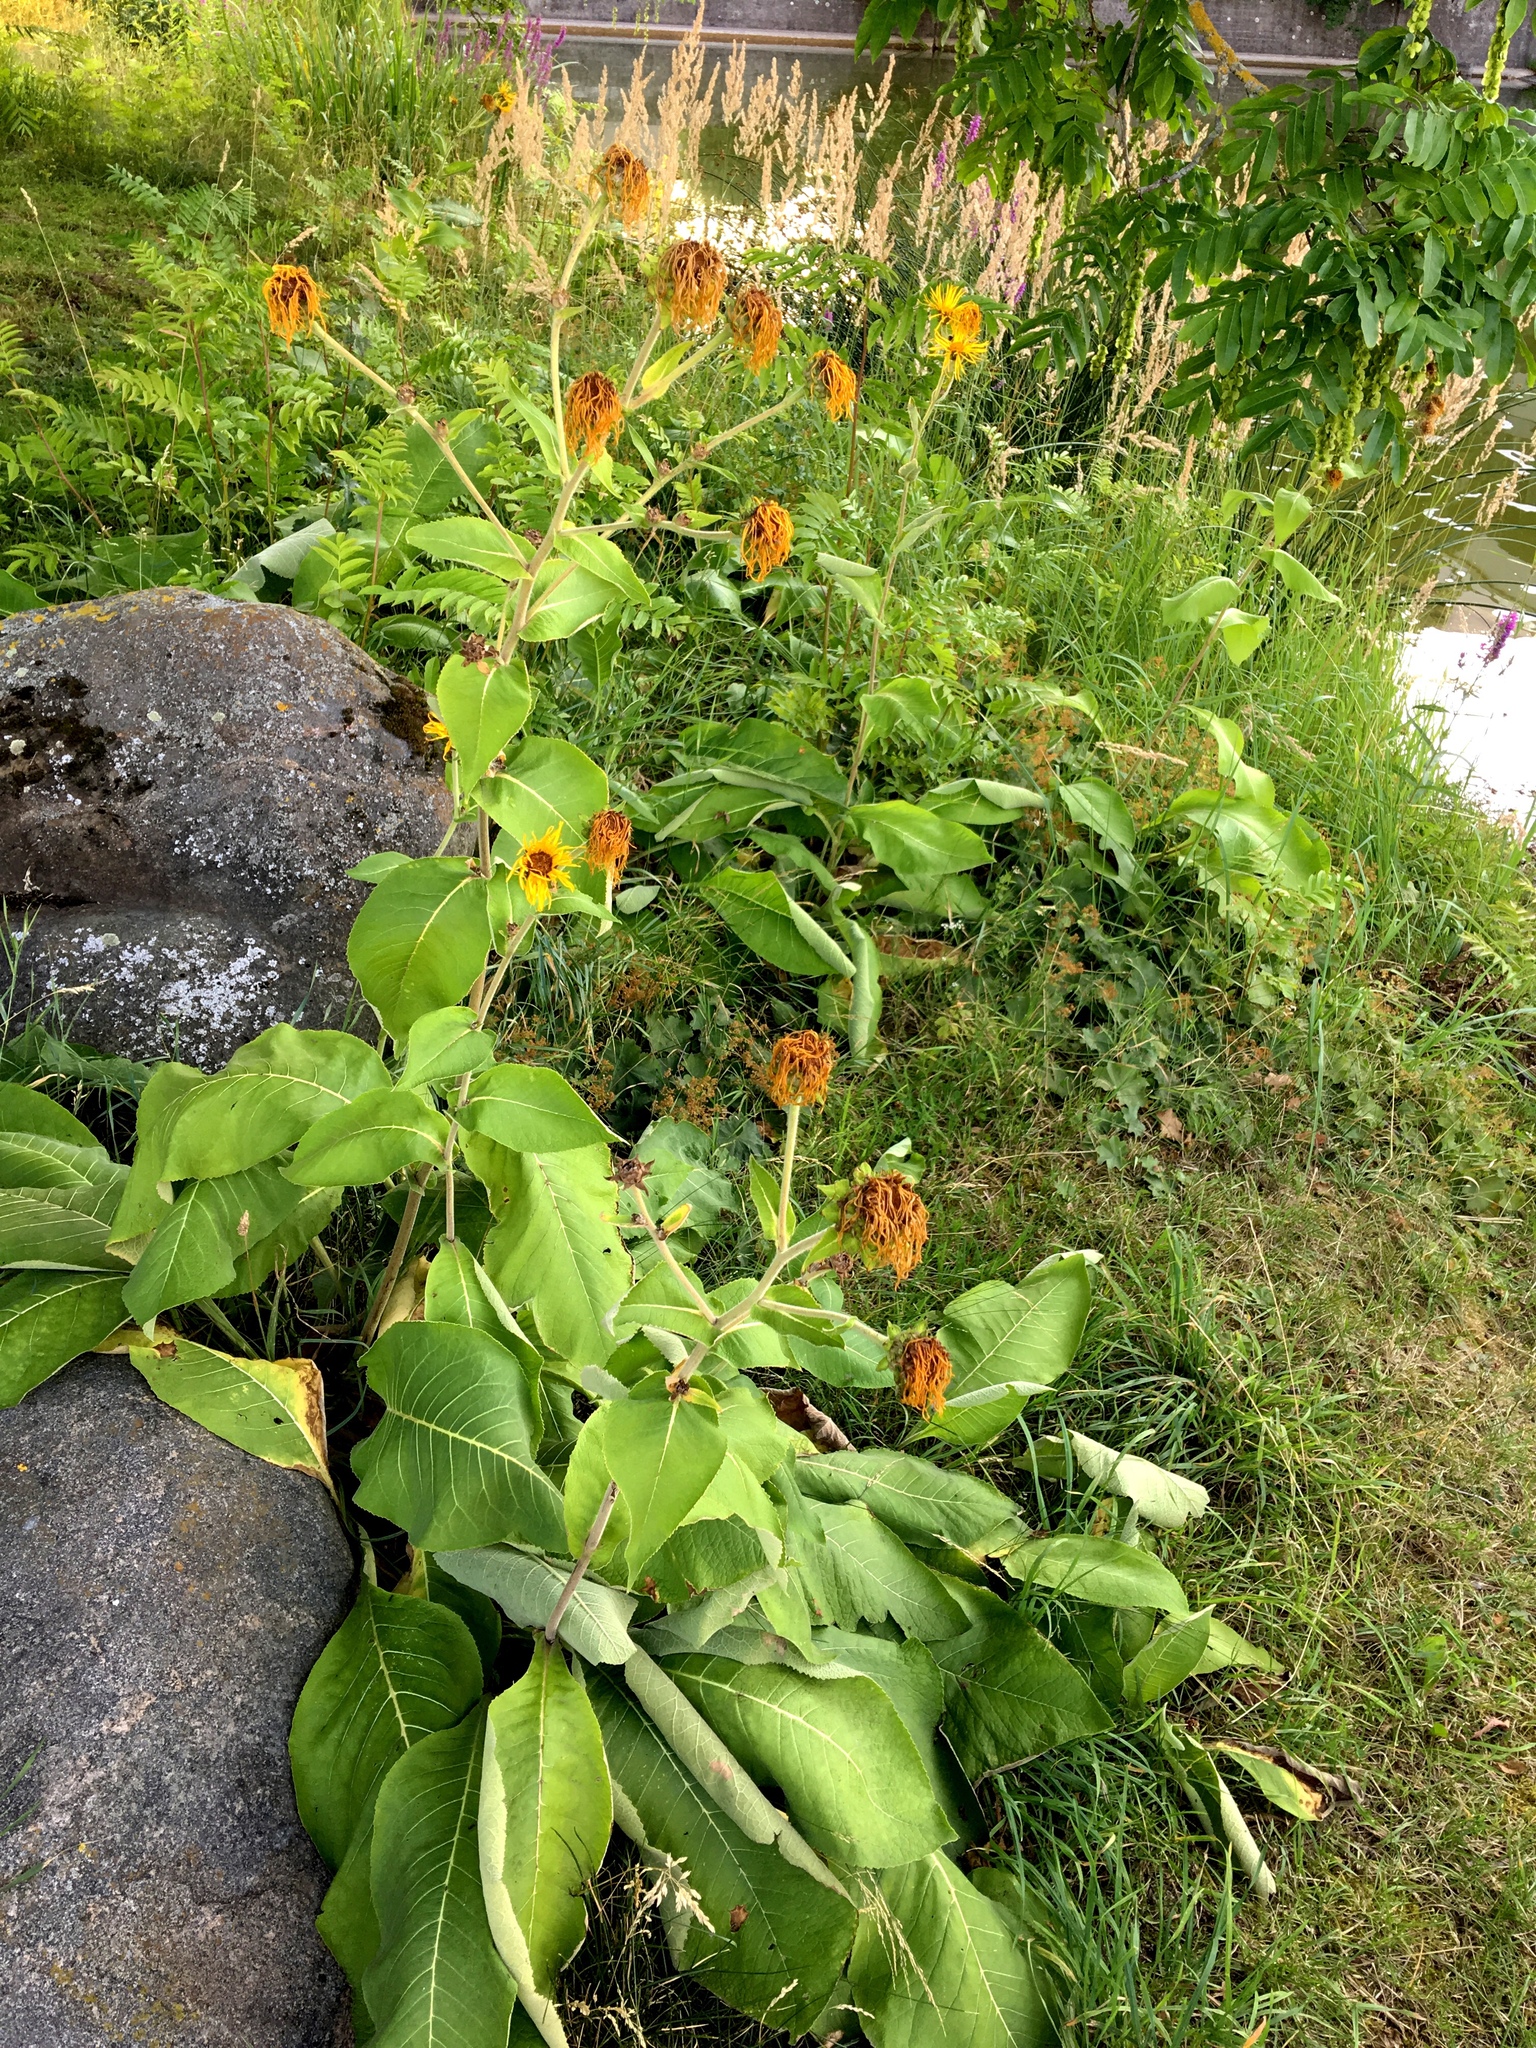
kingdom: Plantae
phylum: Tracheophyta
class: Magnoliopsida
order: Asterales
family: Asteraceae
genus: Inula
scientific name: Inula helenium
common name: Elecampane
